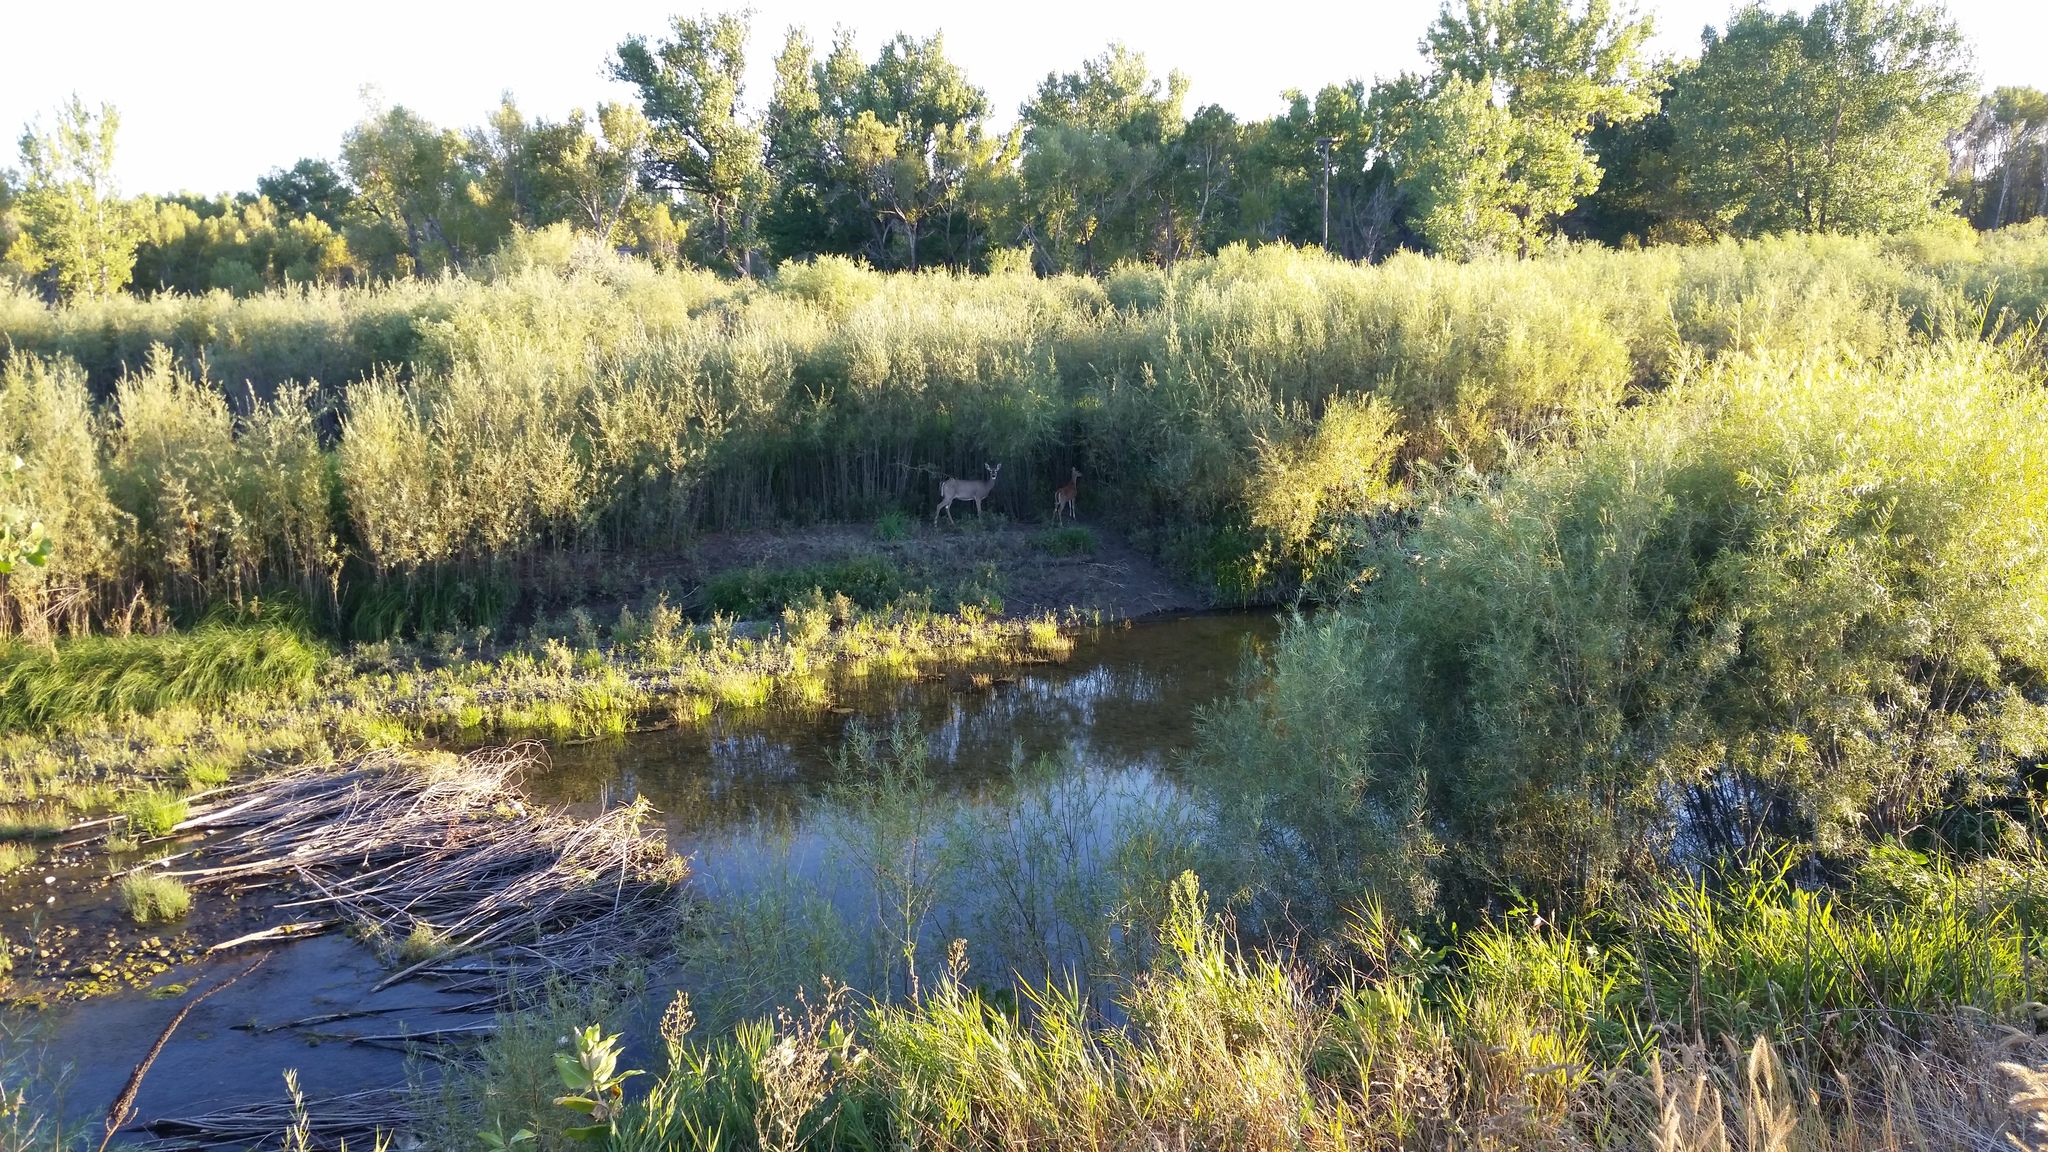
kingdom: Animalia
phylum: Chordata
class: Mammalia
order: Artiodactyla
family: Cervidae
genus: Odocoileus
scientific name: Odocoileus virginianus
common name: White-tailed deer
